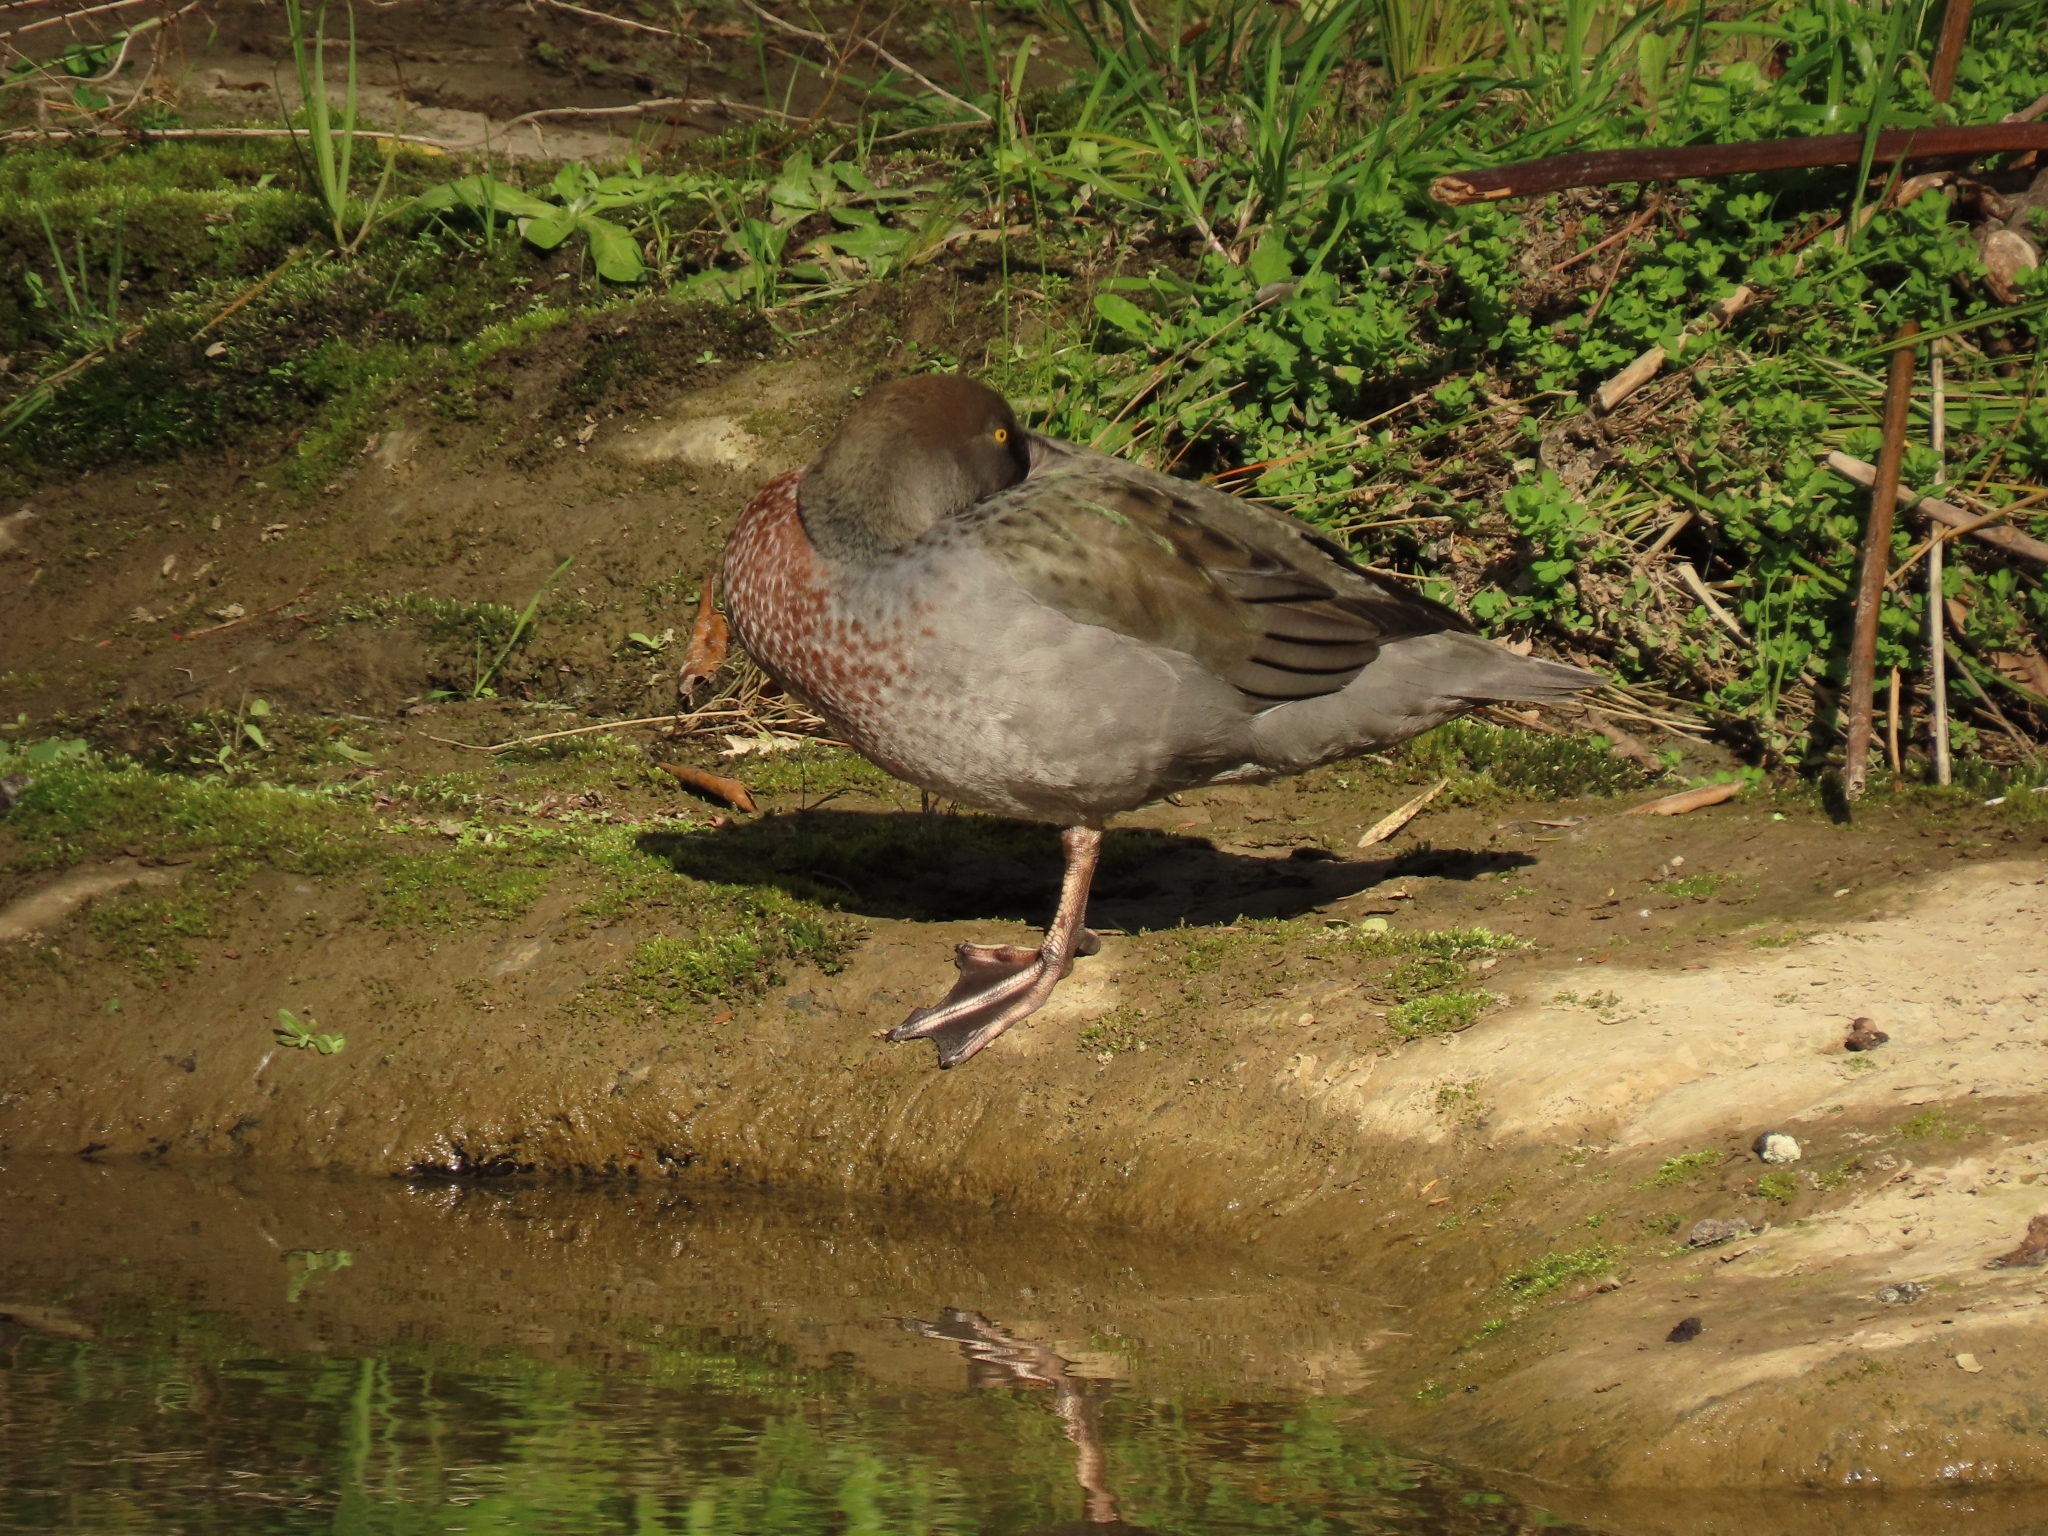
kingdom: Animalia
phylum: Chordata
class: Aves
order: Anseriformes
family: Anatidae
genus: Hymenolaimus
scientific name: Hymenolaimus malacorhynchos
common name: Blue duck
